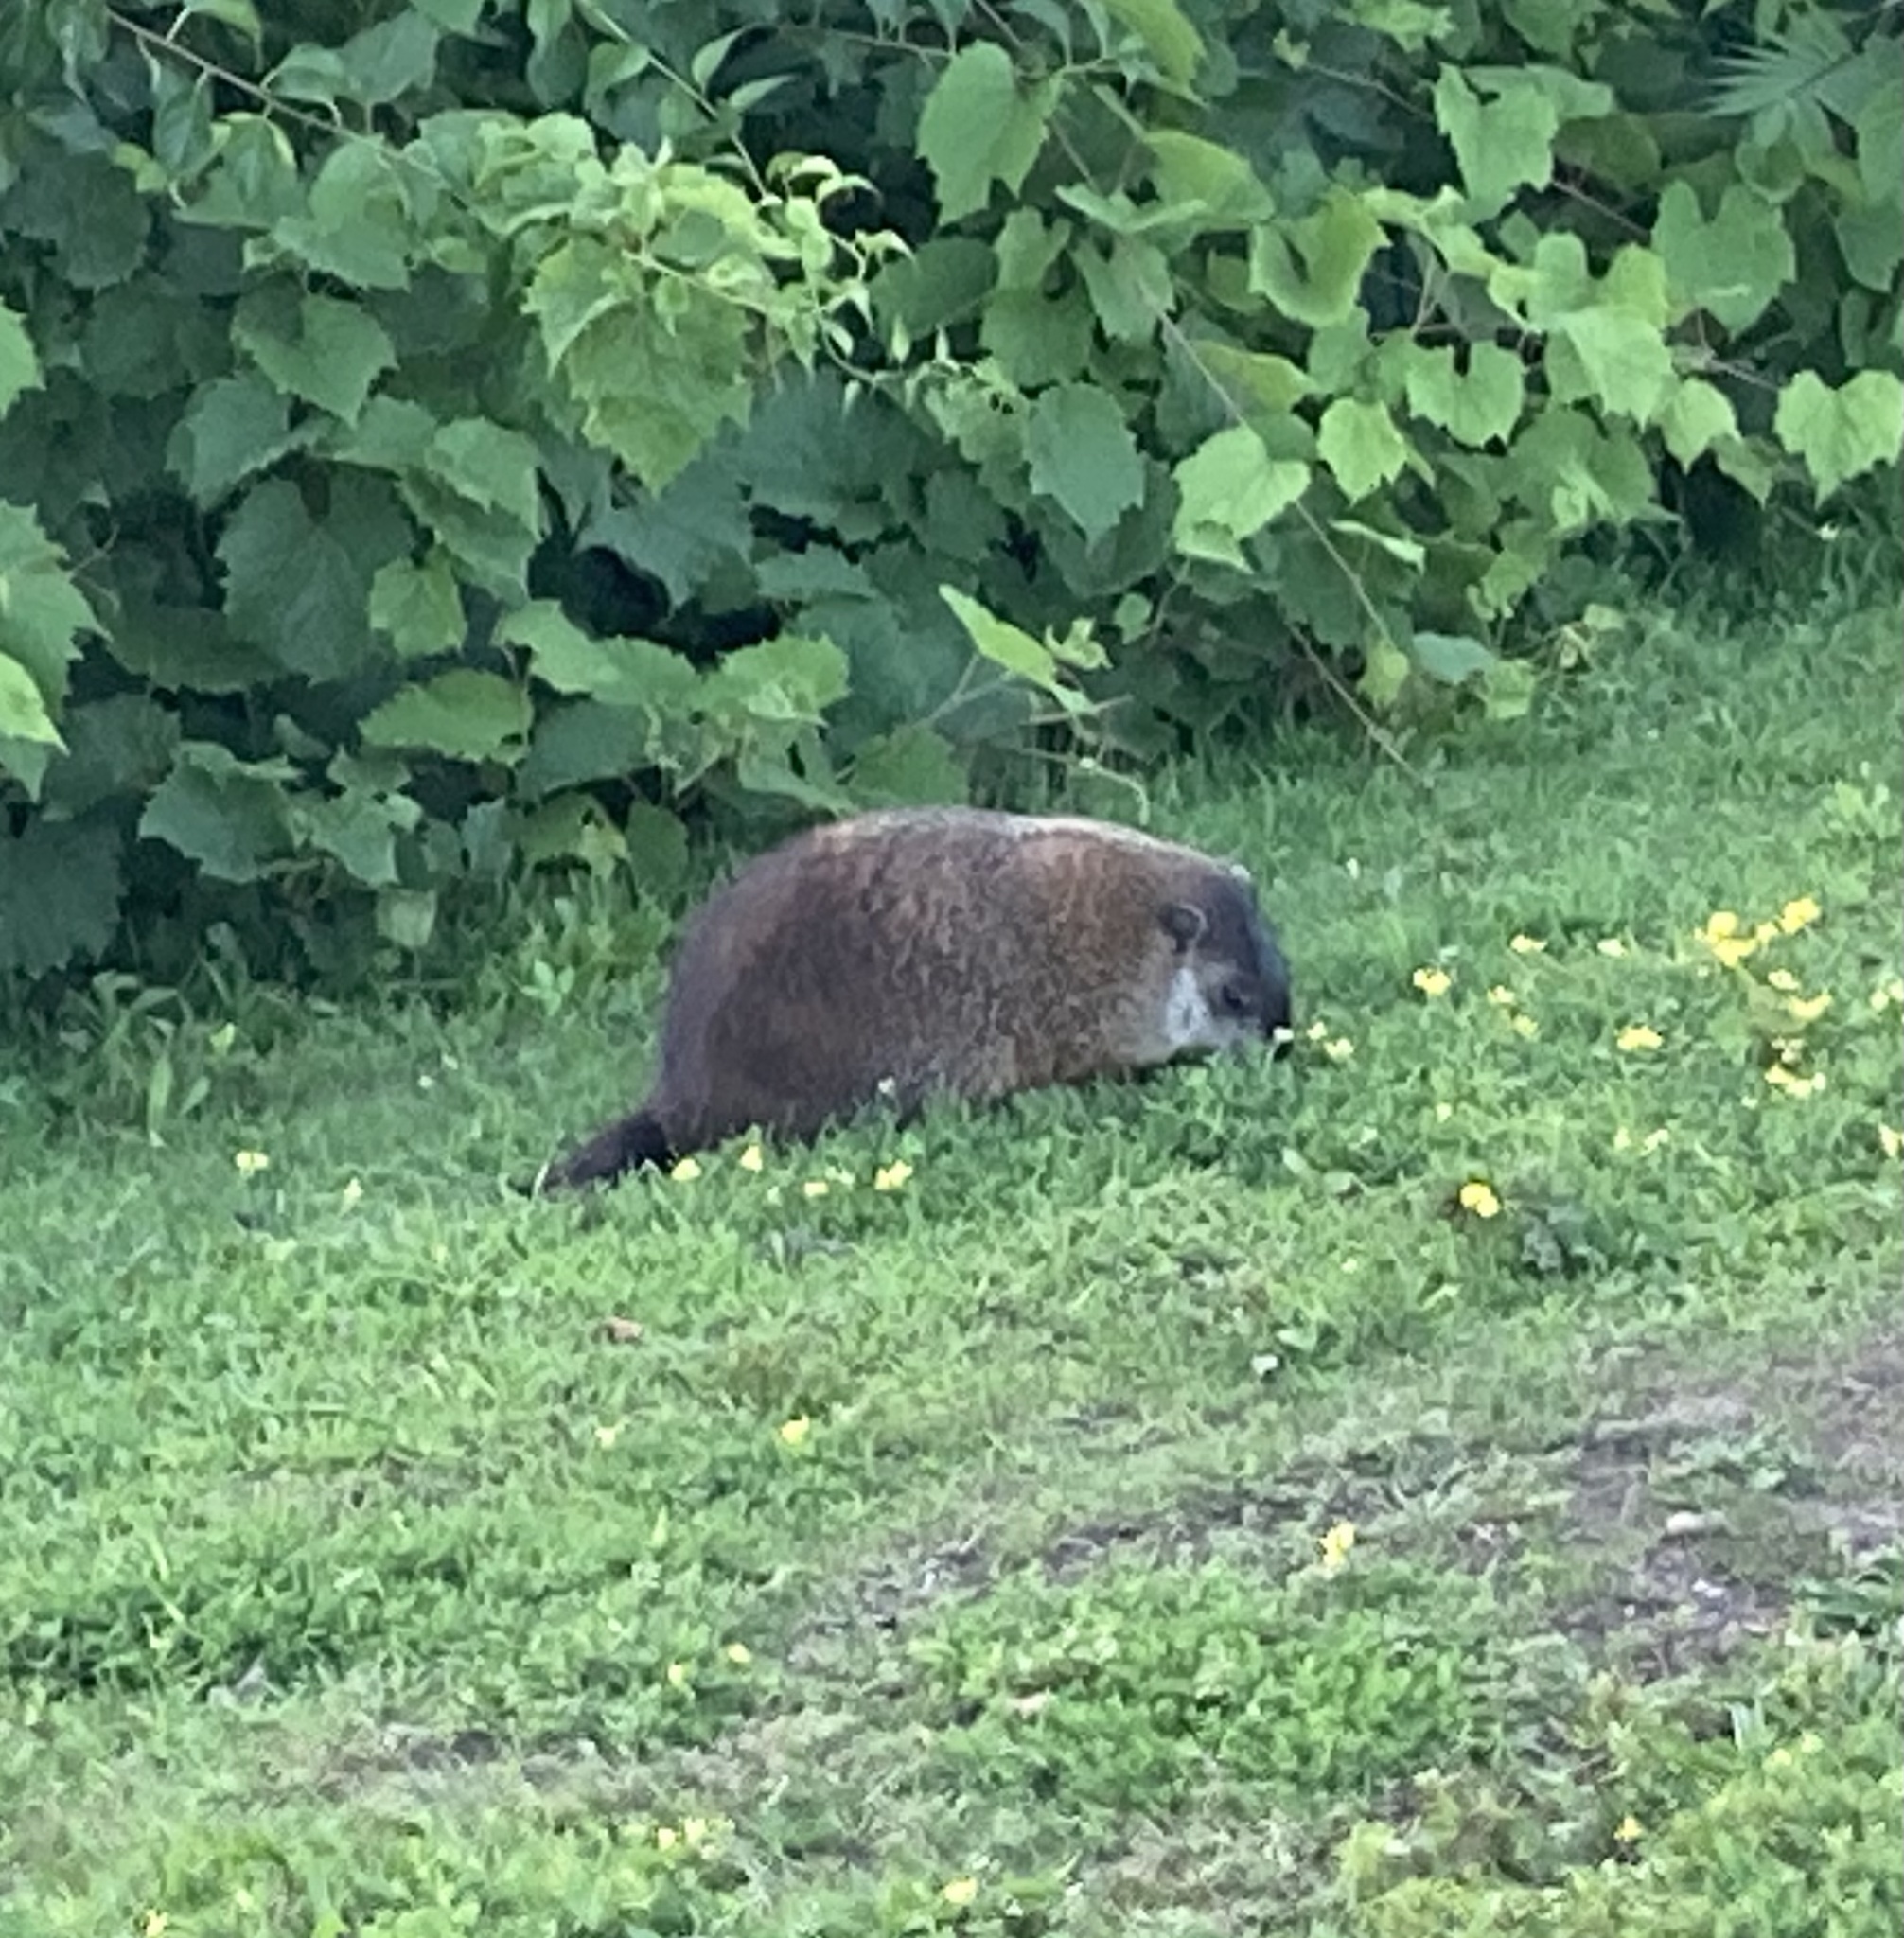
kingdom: Animalia
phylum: Chordata
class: Mammalia
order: Rodentia
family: Sciuridae
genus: Marmota
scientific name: Marmota monax
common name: Groundhog
